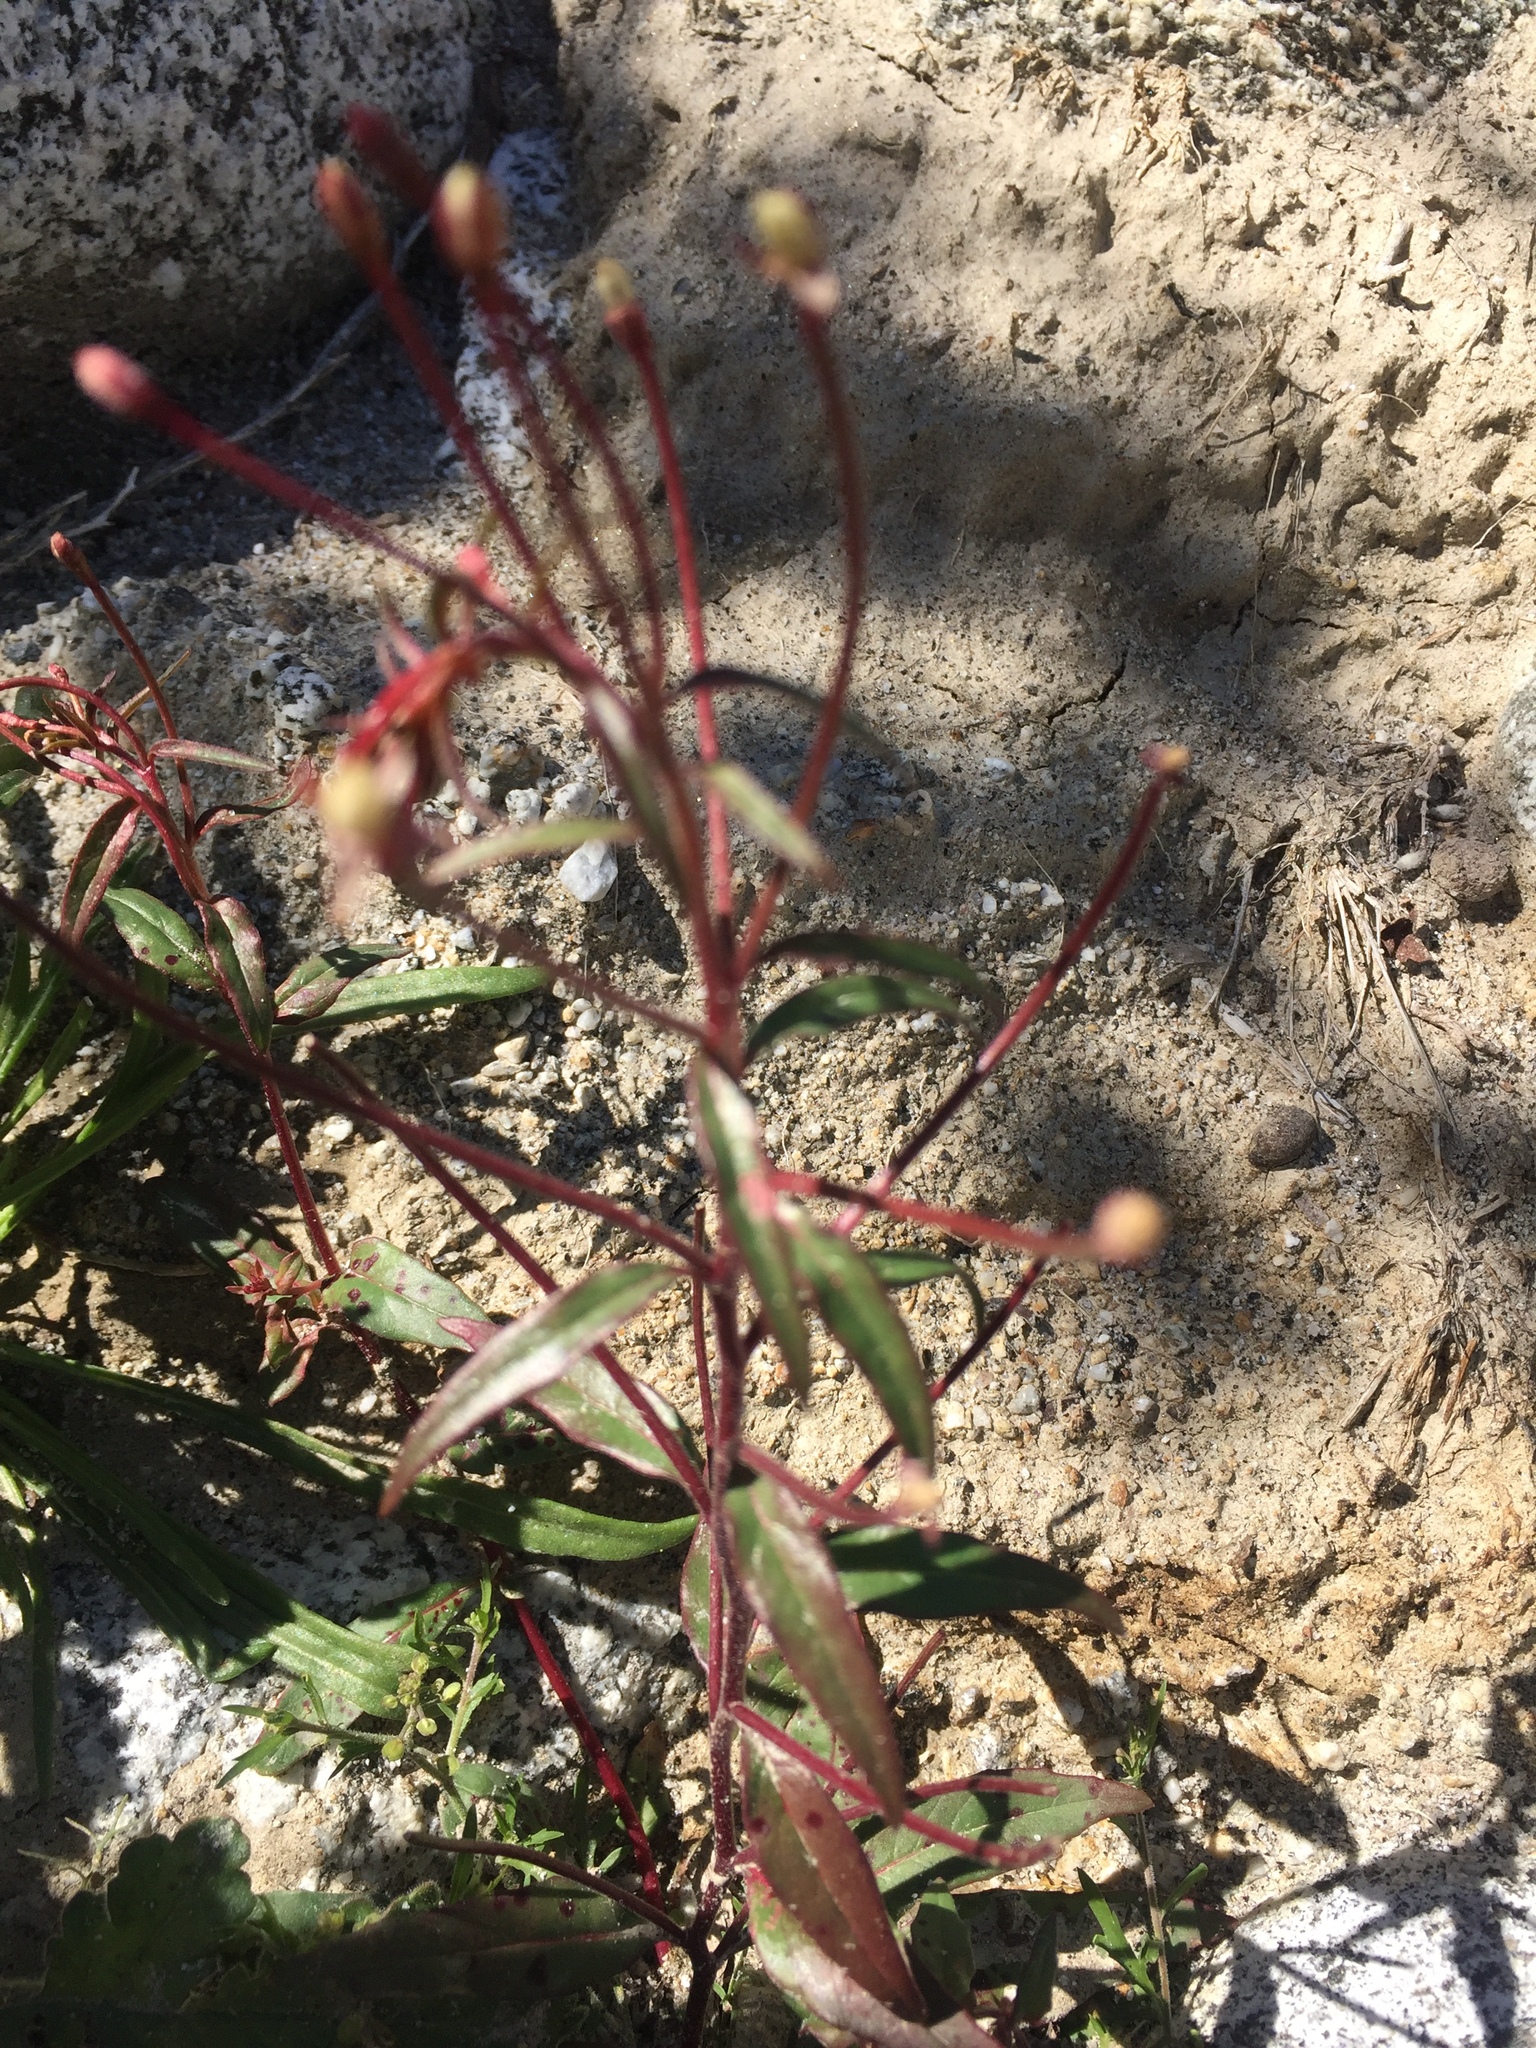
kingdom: Plantae
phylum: Tracheophyta
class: Magnoliopsida
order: Myrtales
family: Onagraceae
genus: Eremothera
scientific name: Eremothera chamaenerioides
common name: Longcapsule suncup
